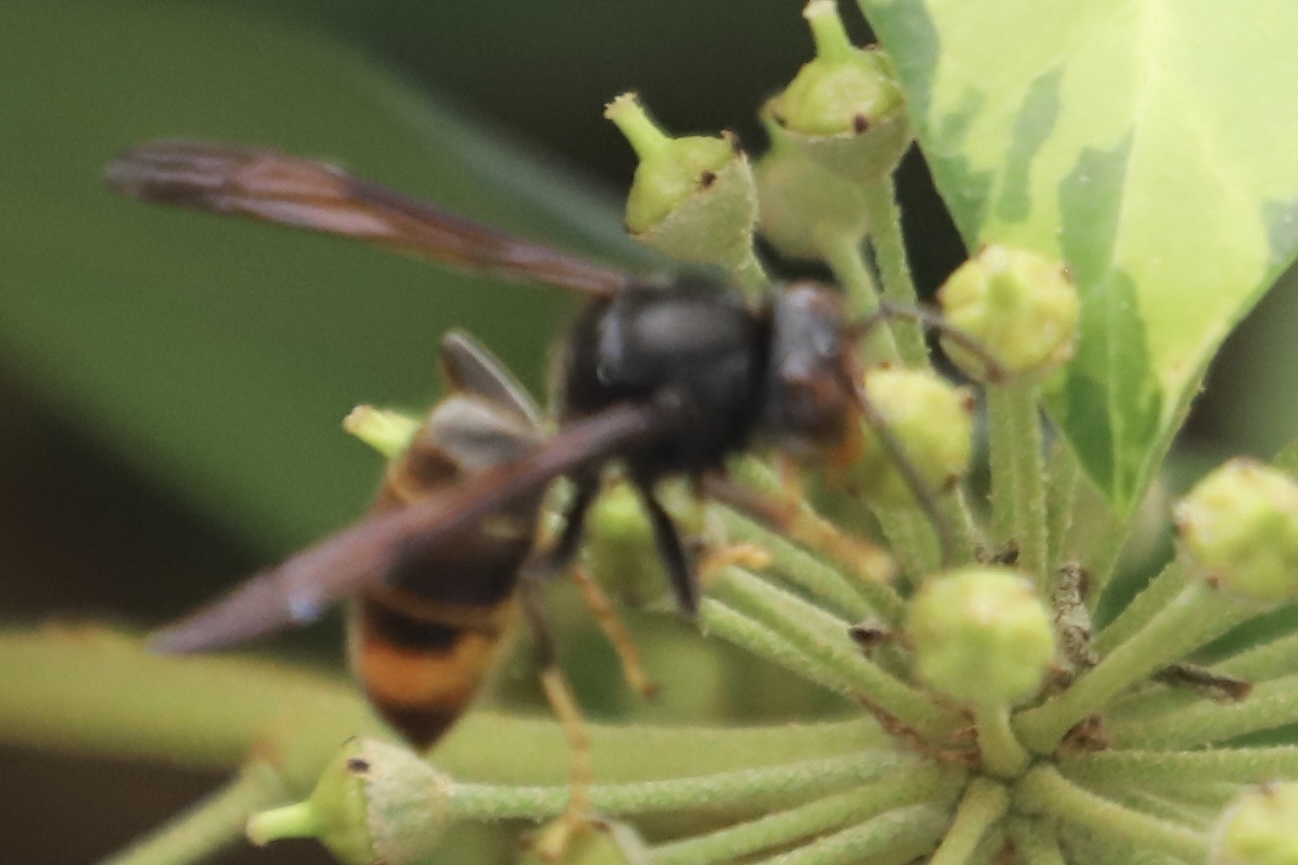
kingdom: Animalia
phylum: Arthropoda
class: Insecta
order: Hymenoptera
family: Vespidae
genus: Vespa
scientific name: Vespa velutina
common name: Asian hornet
